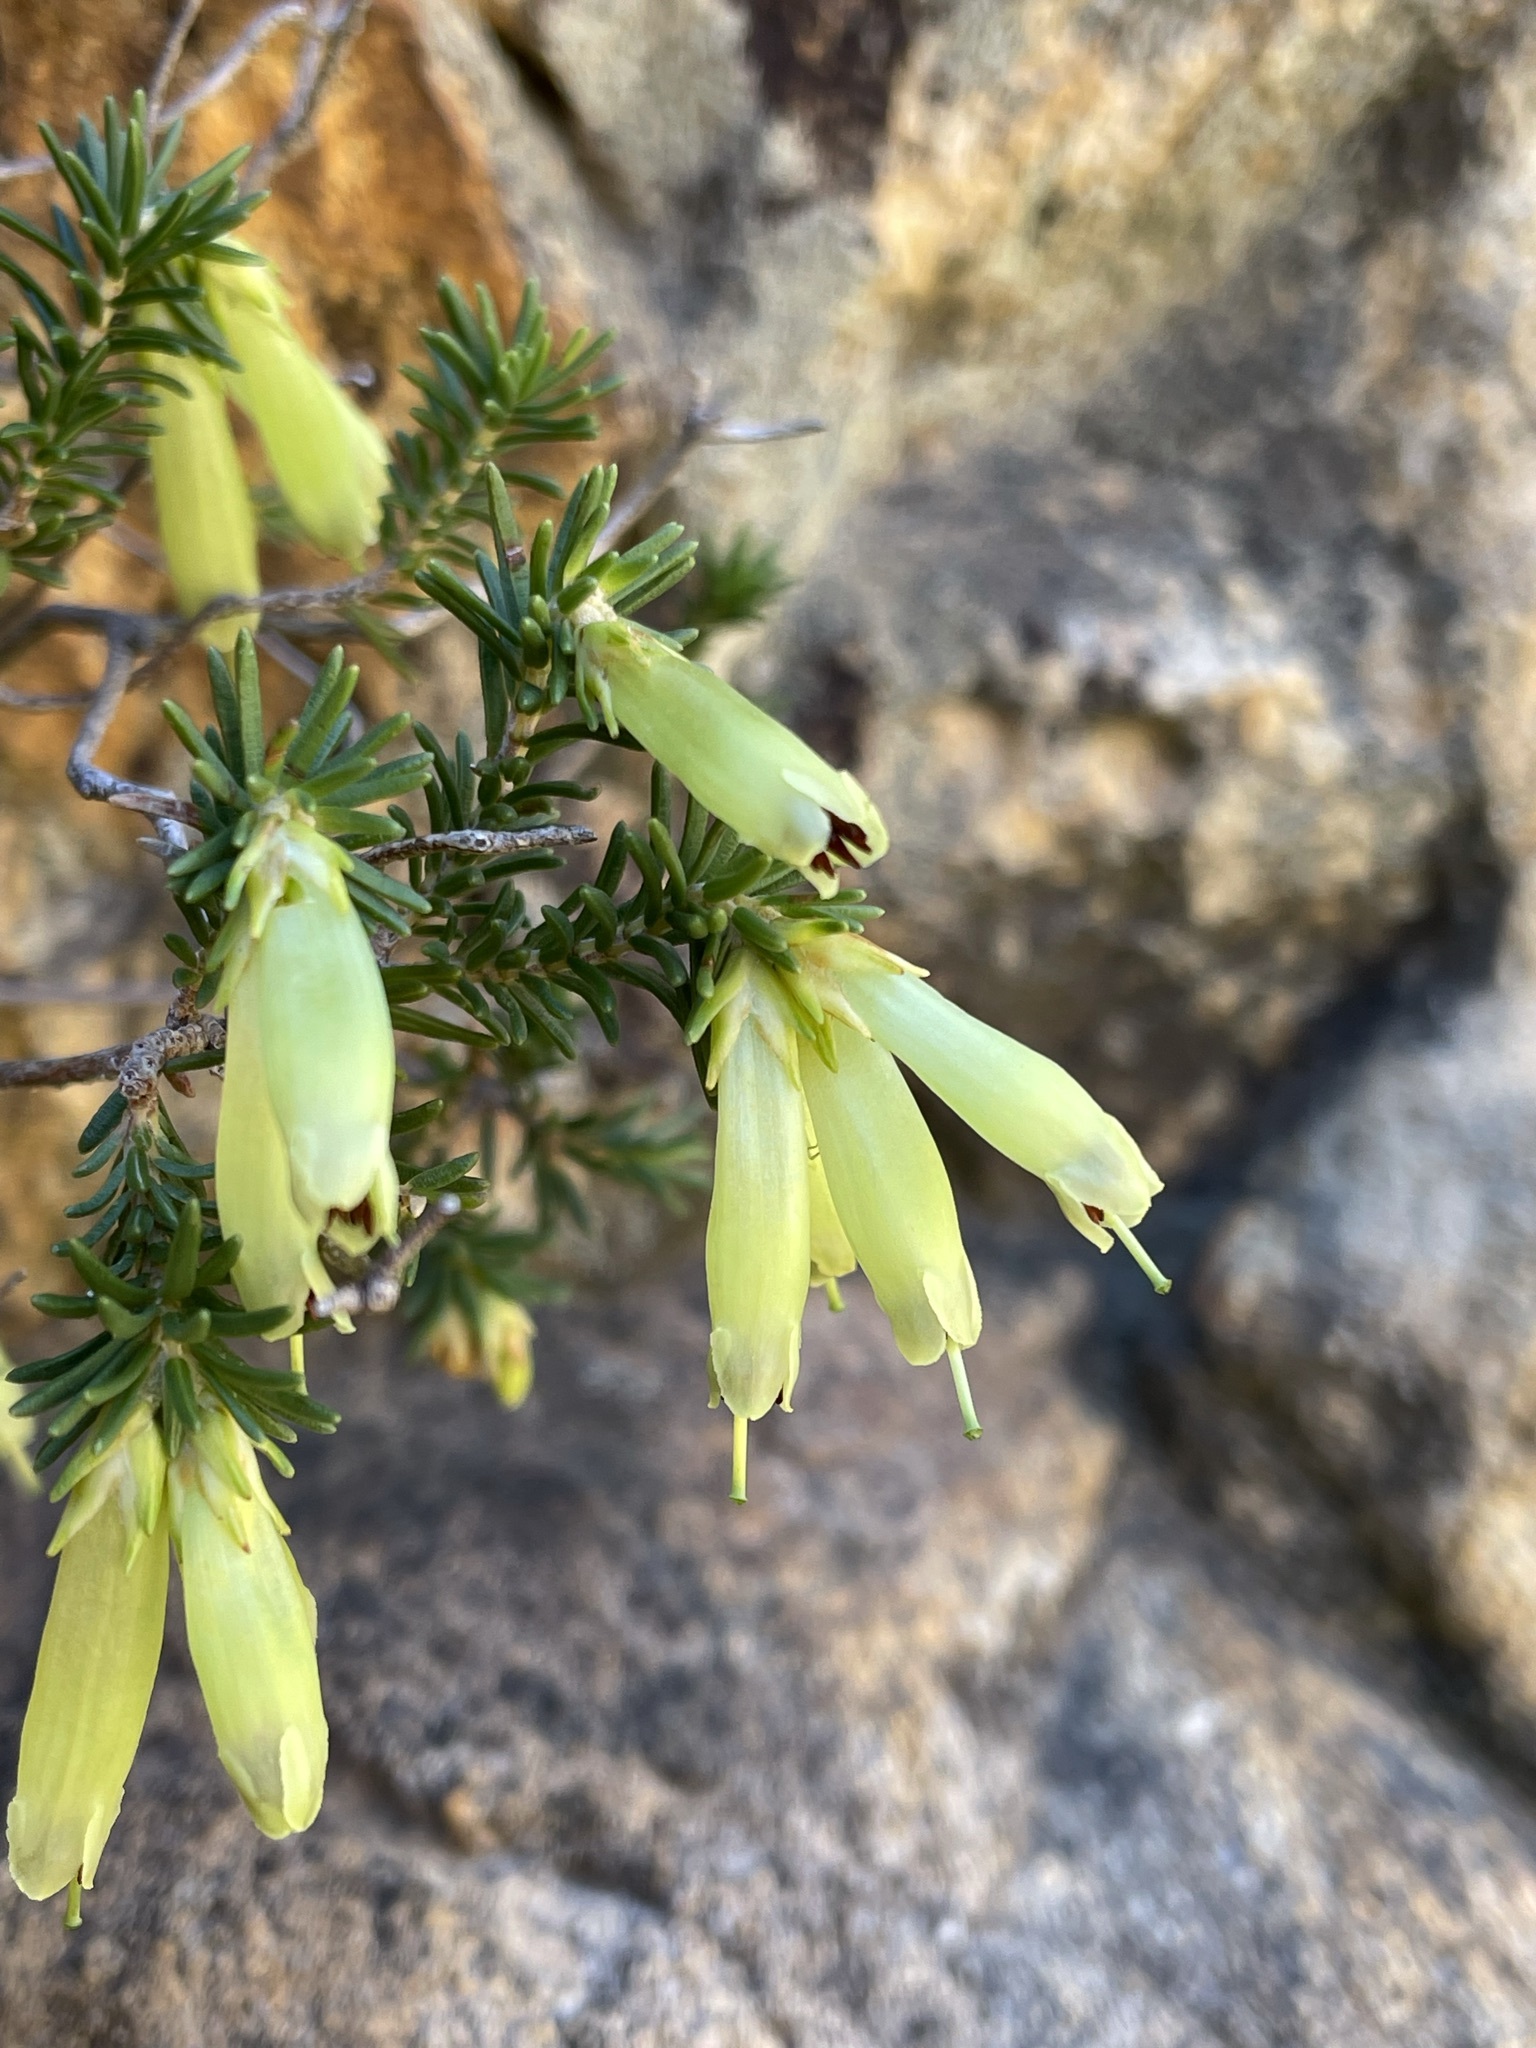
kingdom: Plantae
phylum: Tracheophyta
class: Magnoliopsida
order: Ericales
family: Ericaceae
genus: Erica
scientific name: Erica viridiflora
